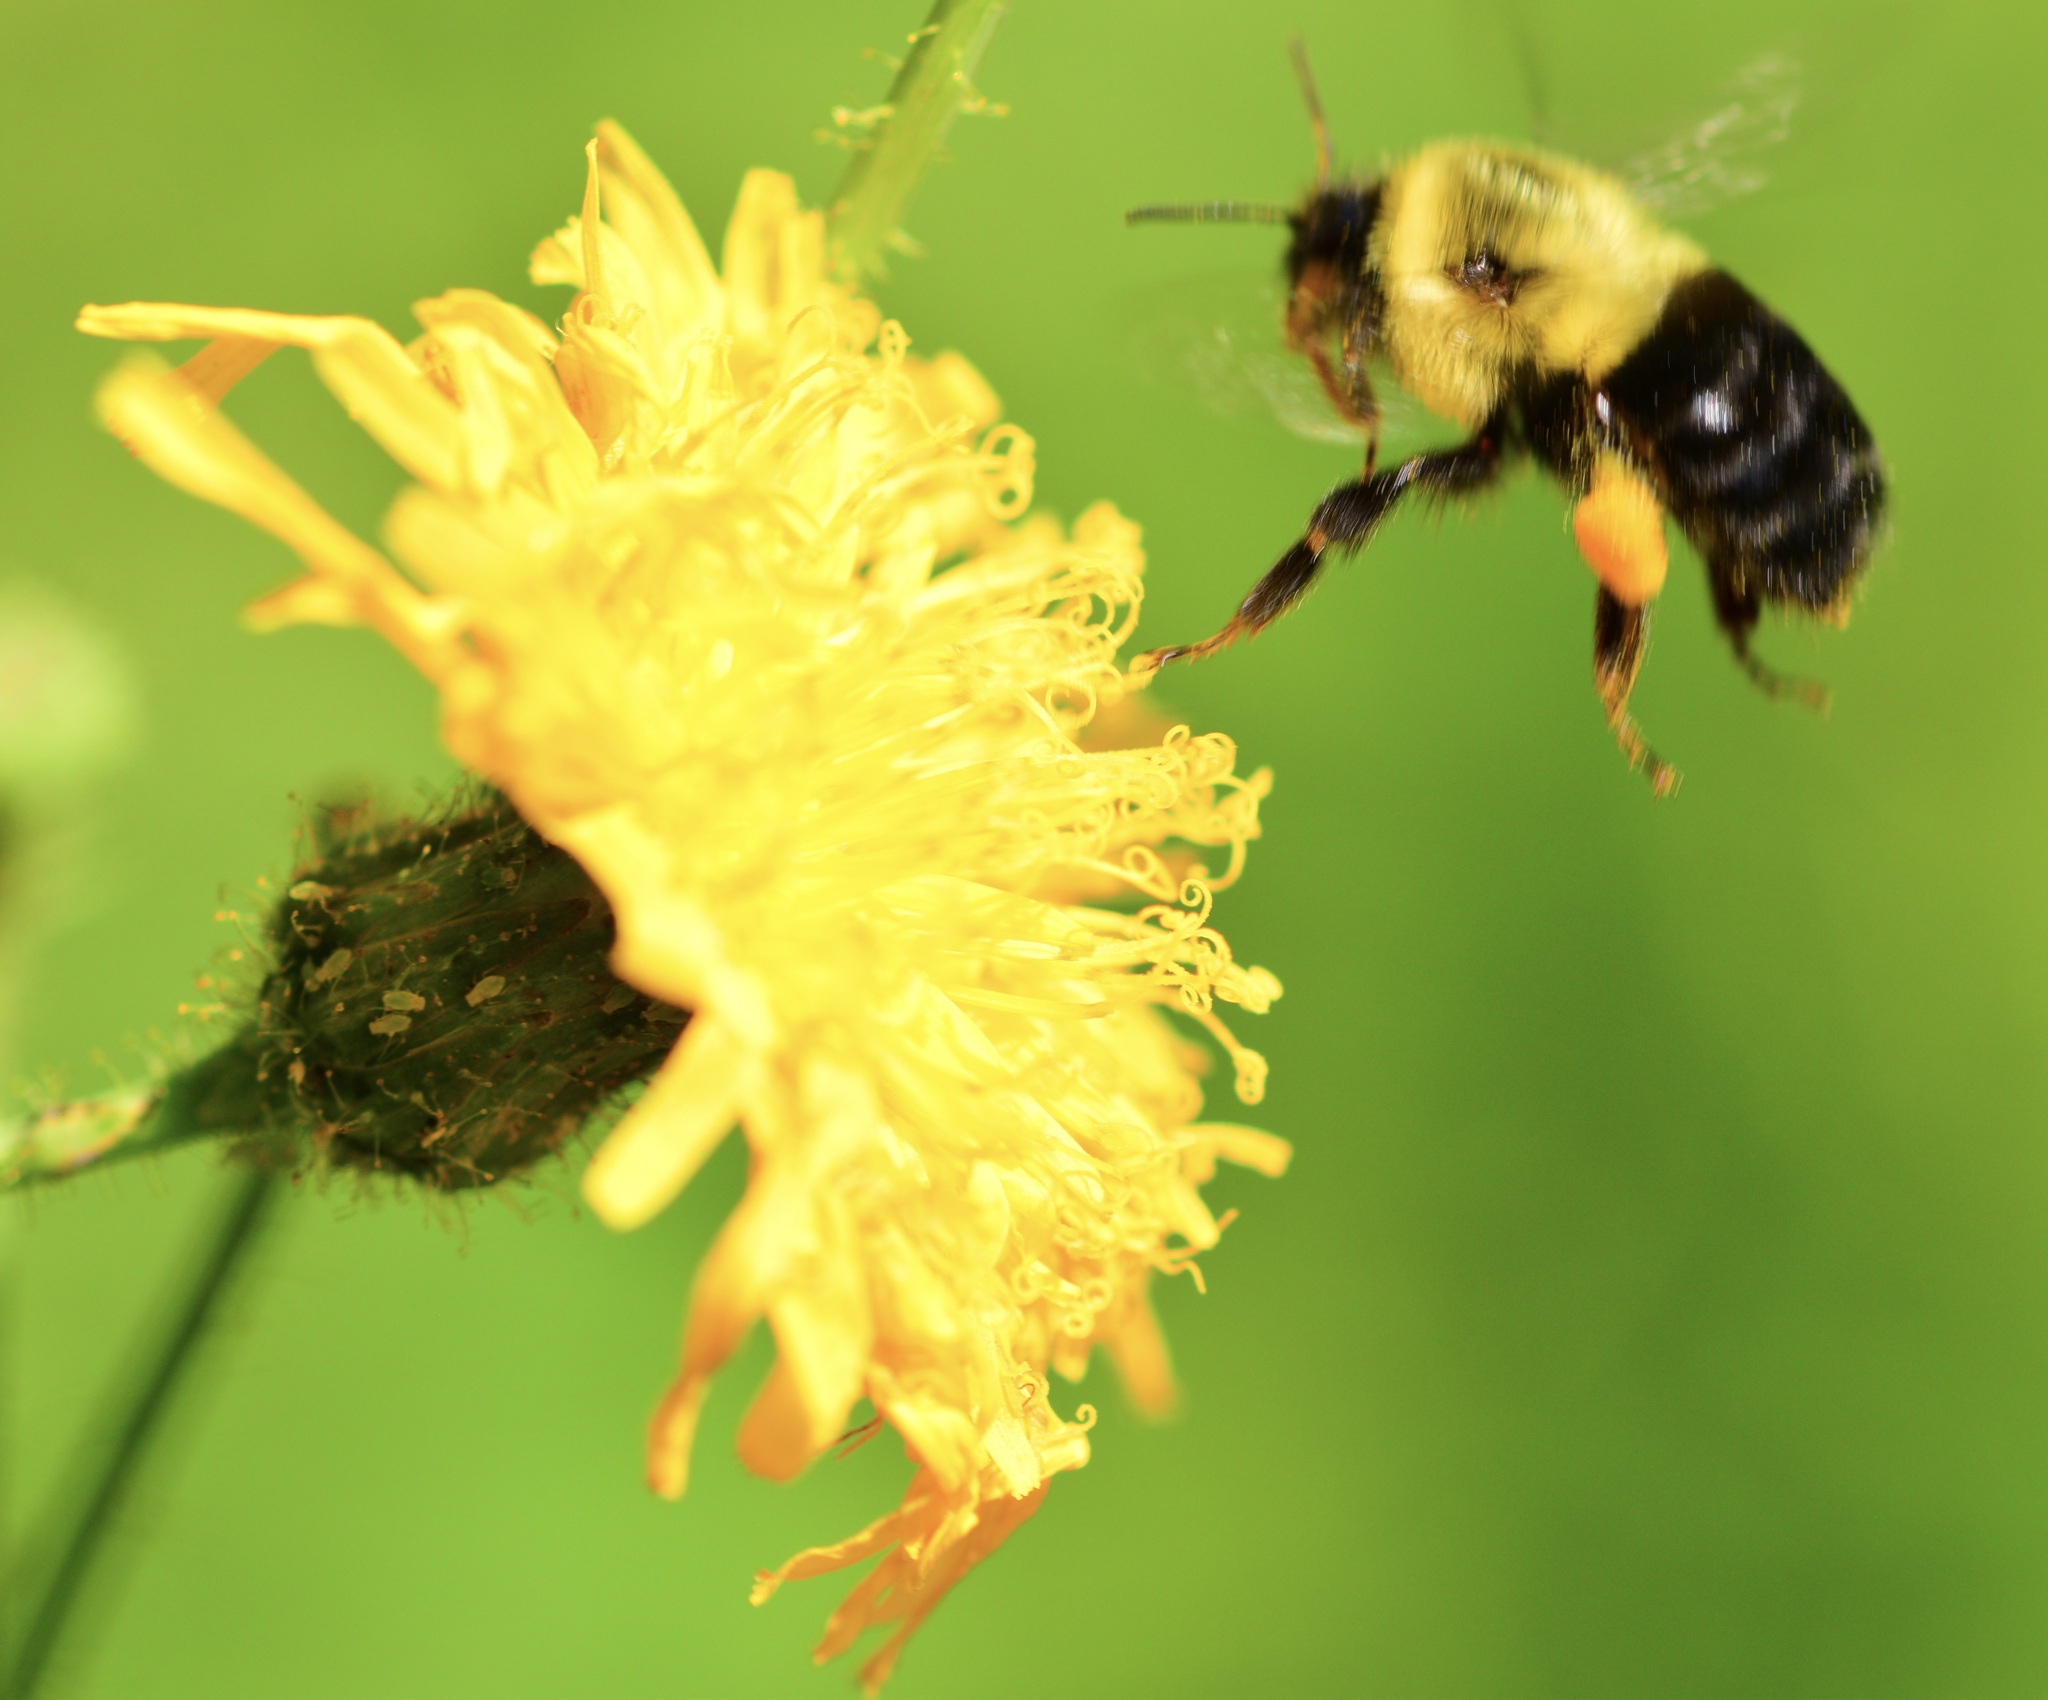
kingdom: Animalia
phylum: Arthropoda
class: Insecta
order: Hymenoptera
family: Apidae
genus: Bombus
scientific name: Bombus impatiens
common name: Common eastern bumble bee
